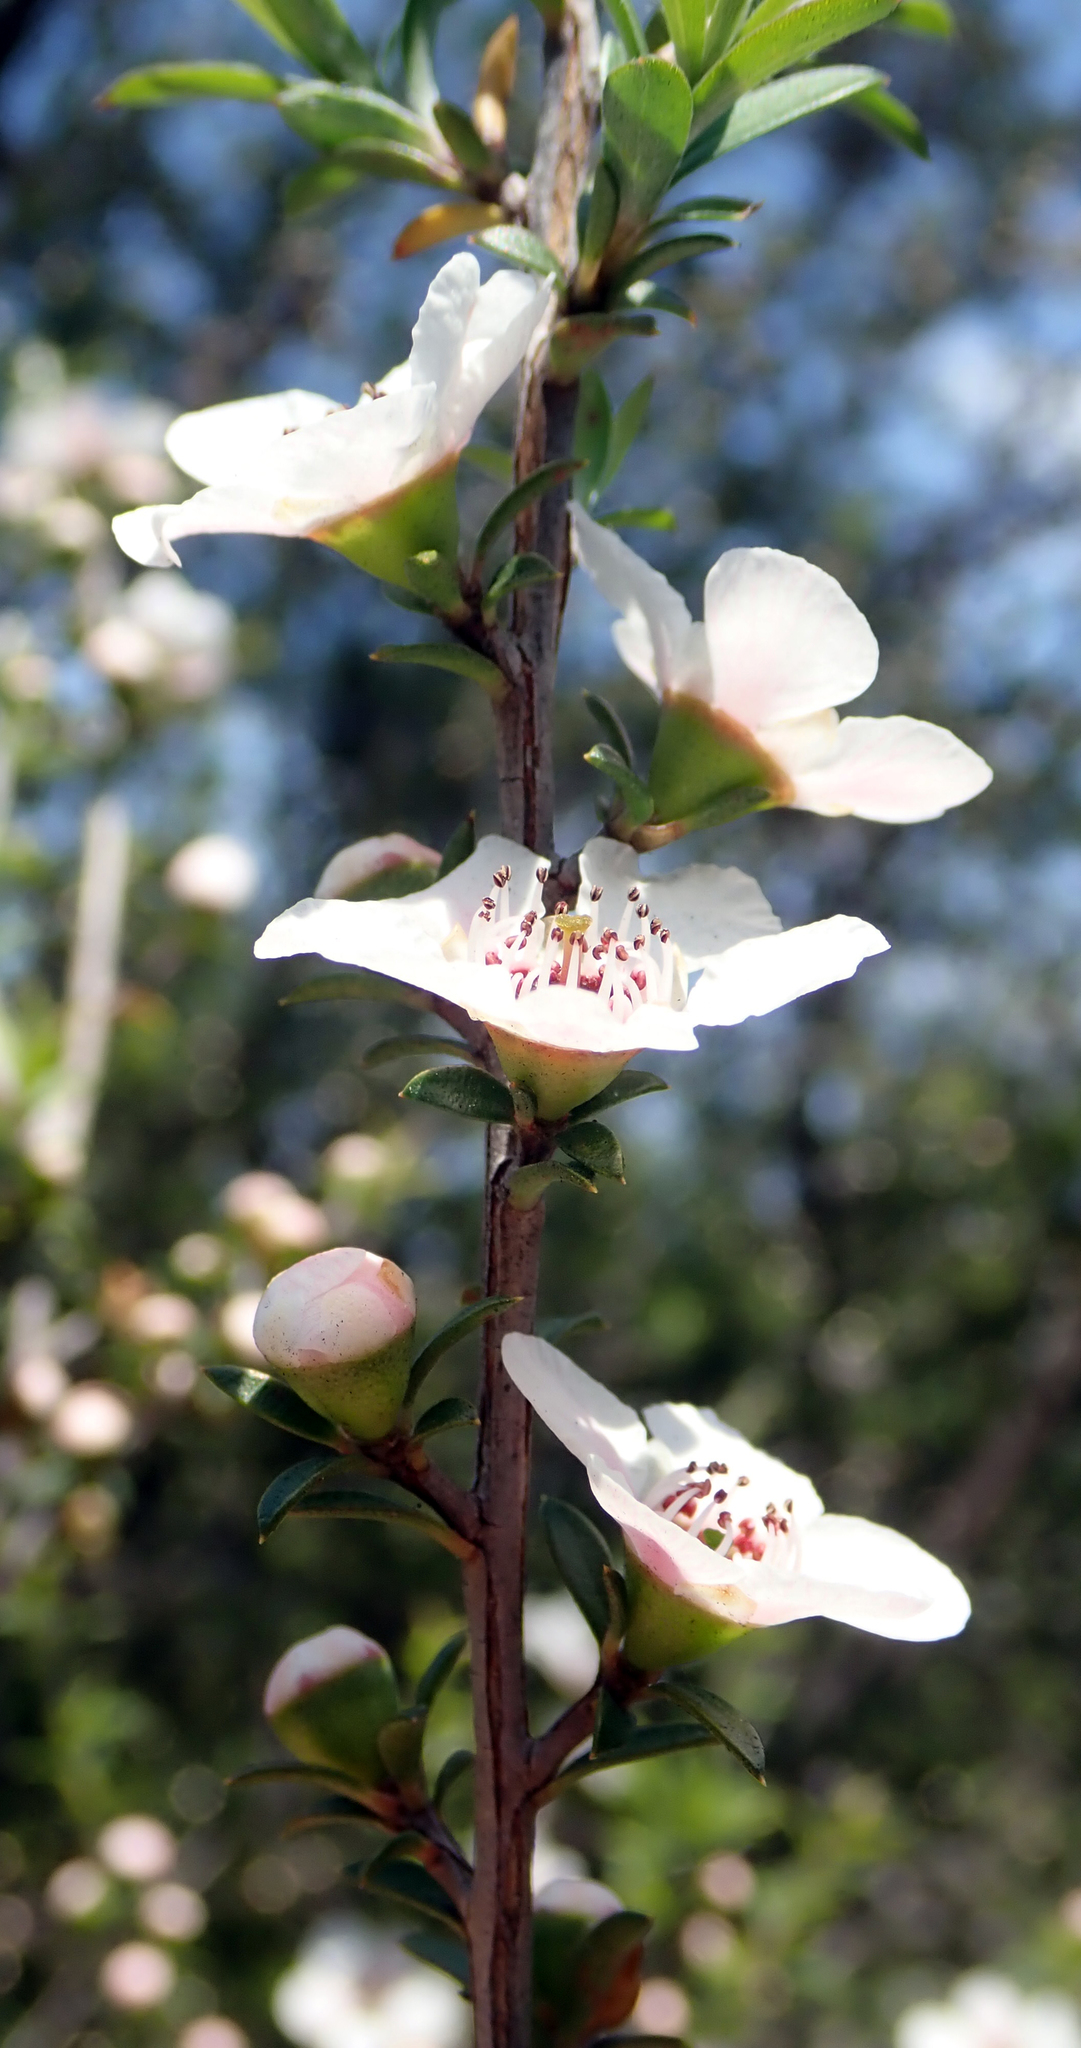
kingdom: Plantae
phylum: Tracheophyta
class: Magnoliopsida
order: Myrtales
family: Myrtaceae
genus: Leptospermum
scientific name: Leptospermum scoparium
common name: Broom tea-tree
